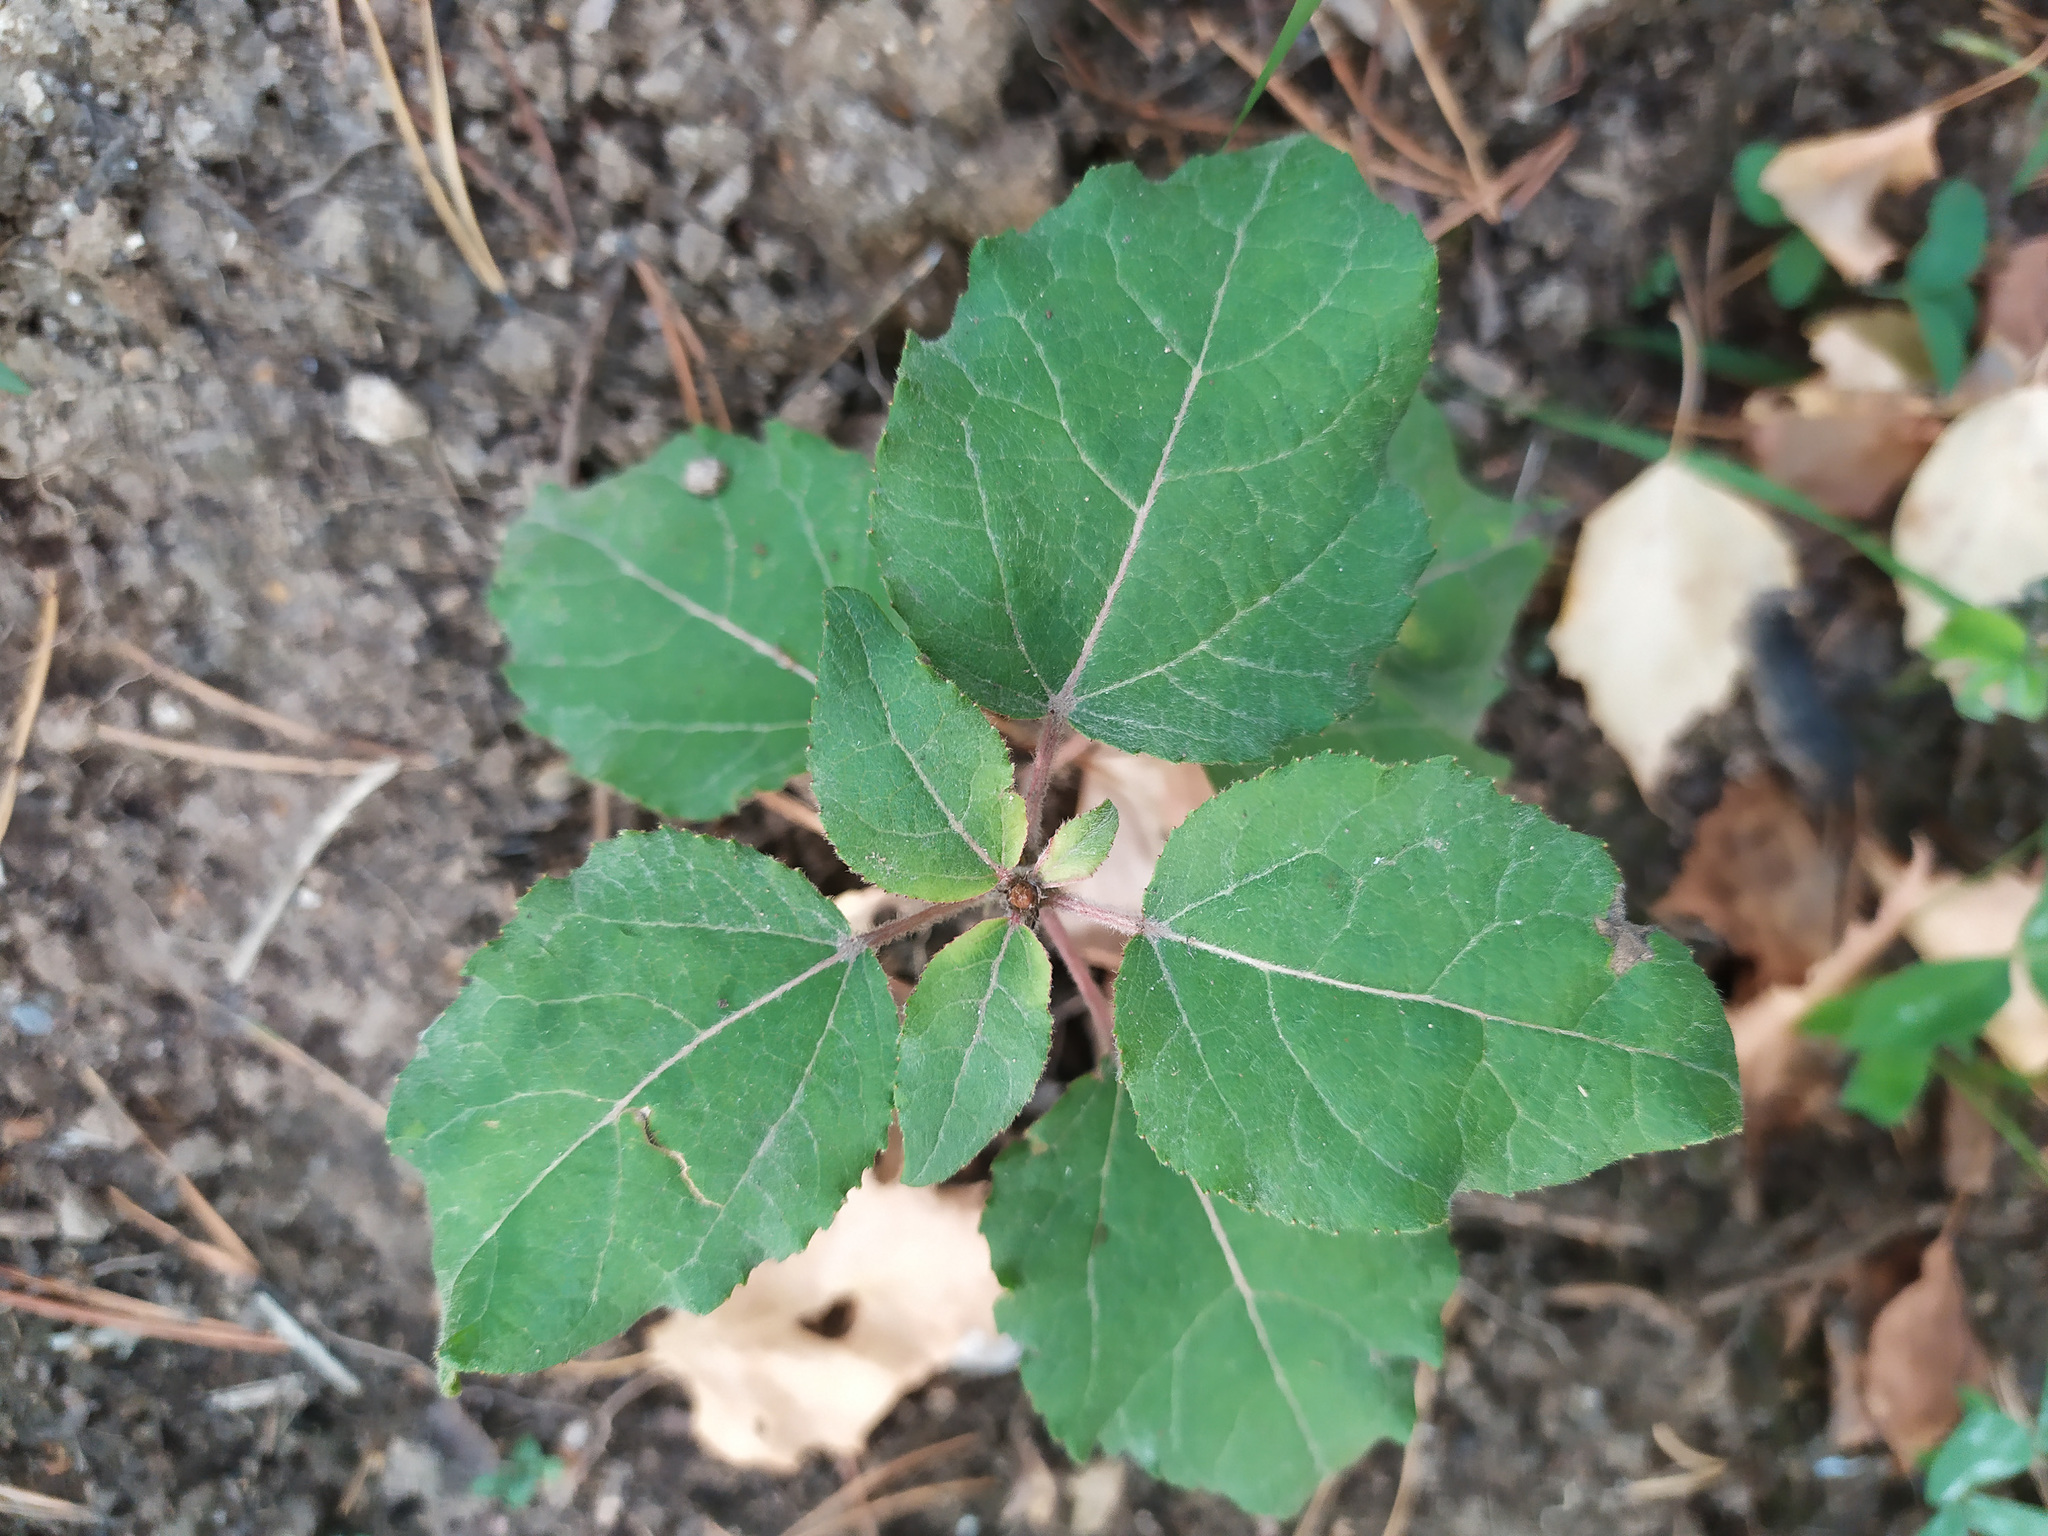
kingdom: Plantae
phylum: Tracheophyta
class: Magnoliopsida
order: Malpighiales
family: Salicaceae
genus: Populus
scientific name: Populus tremula
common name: European aspen
